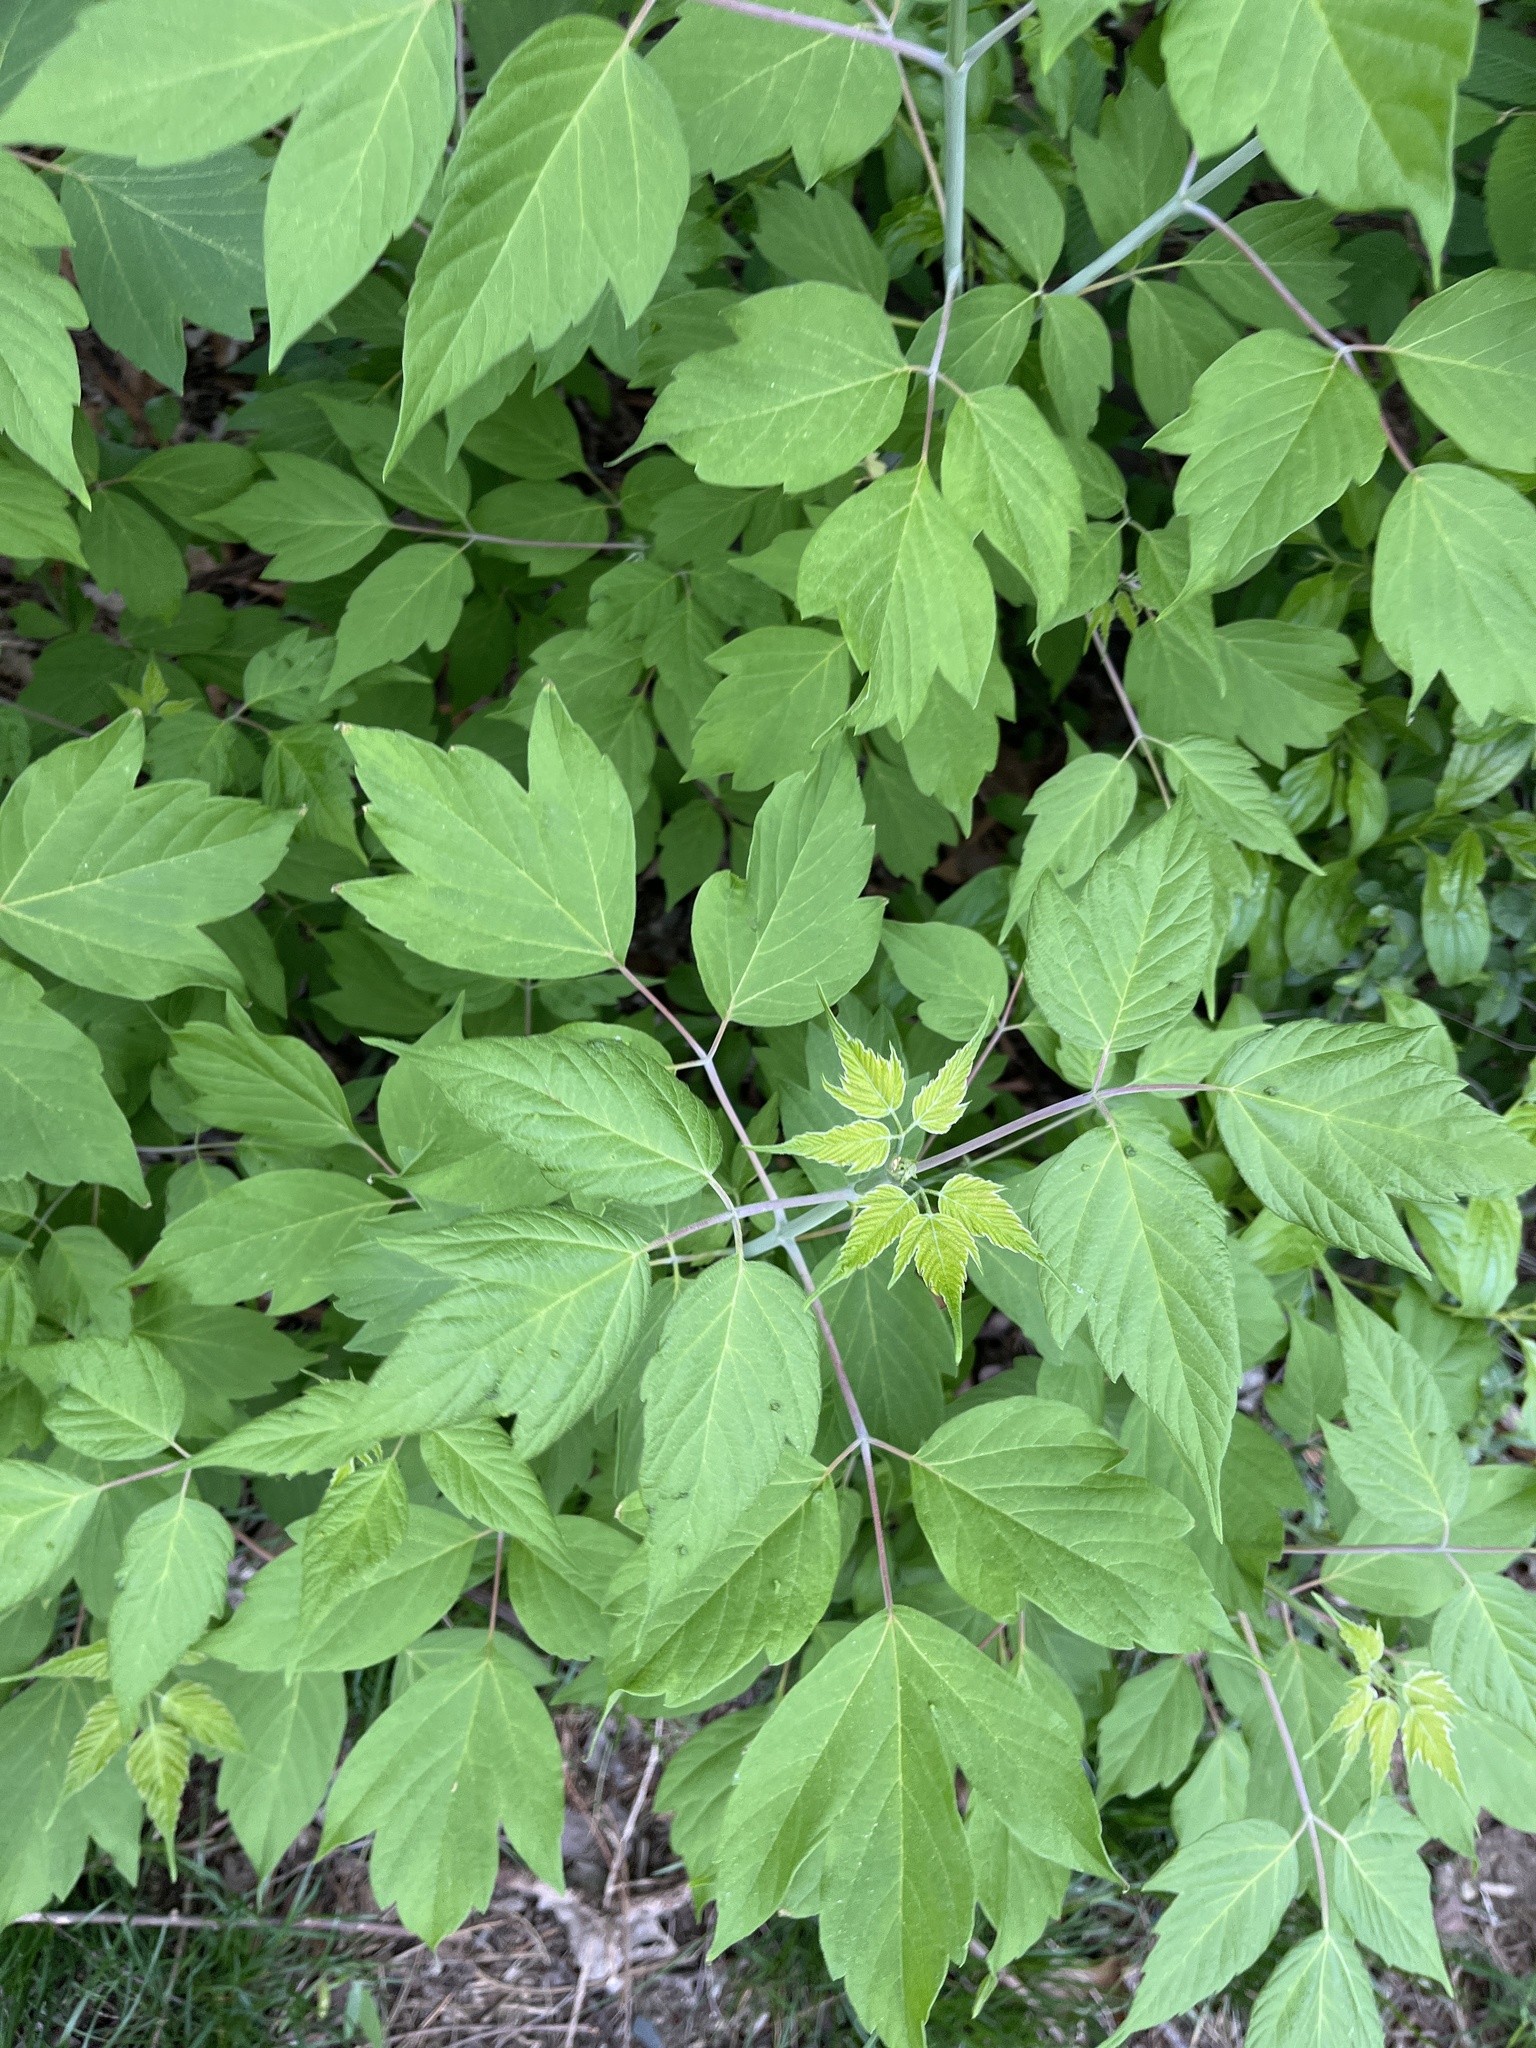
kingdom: Plantae
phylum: Tracheophyta
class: Magnoliopsida
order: Sapindales
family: Sapindaceae
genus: Acer
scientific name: Acer negundo
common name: Ashleaf maple
